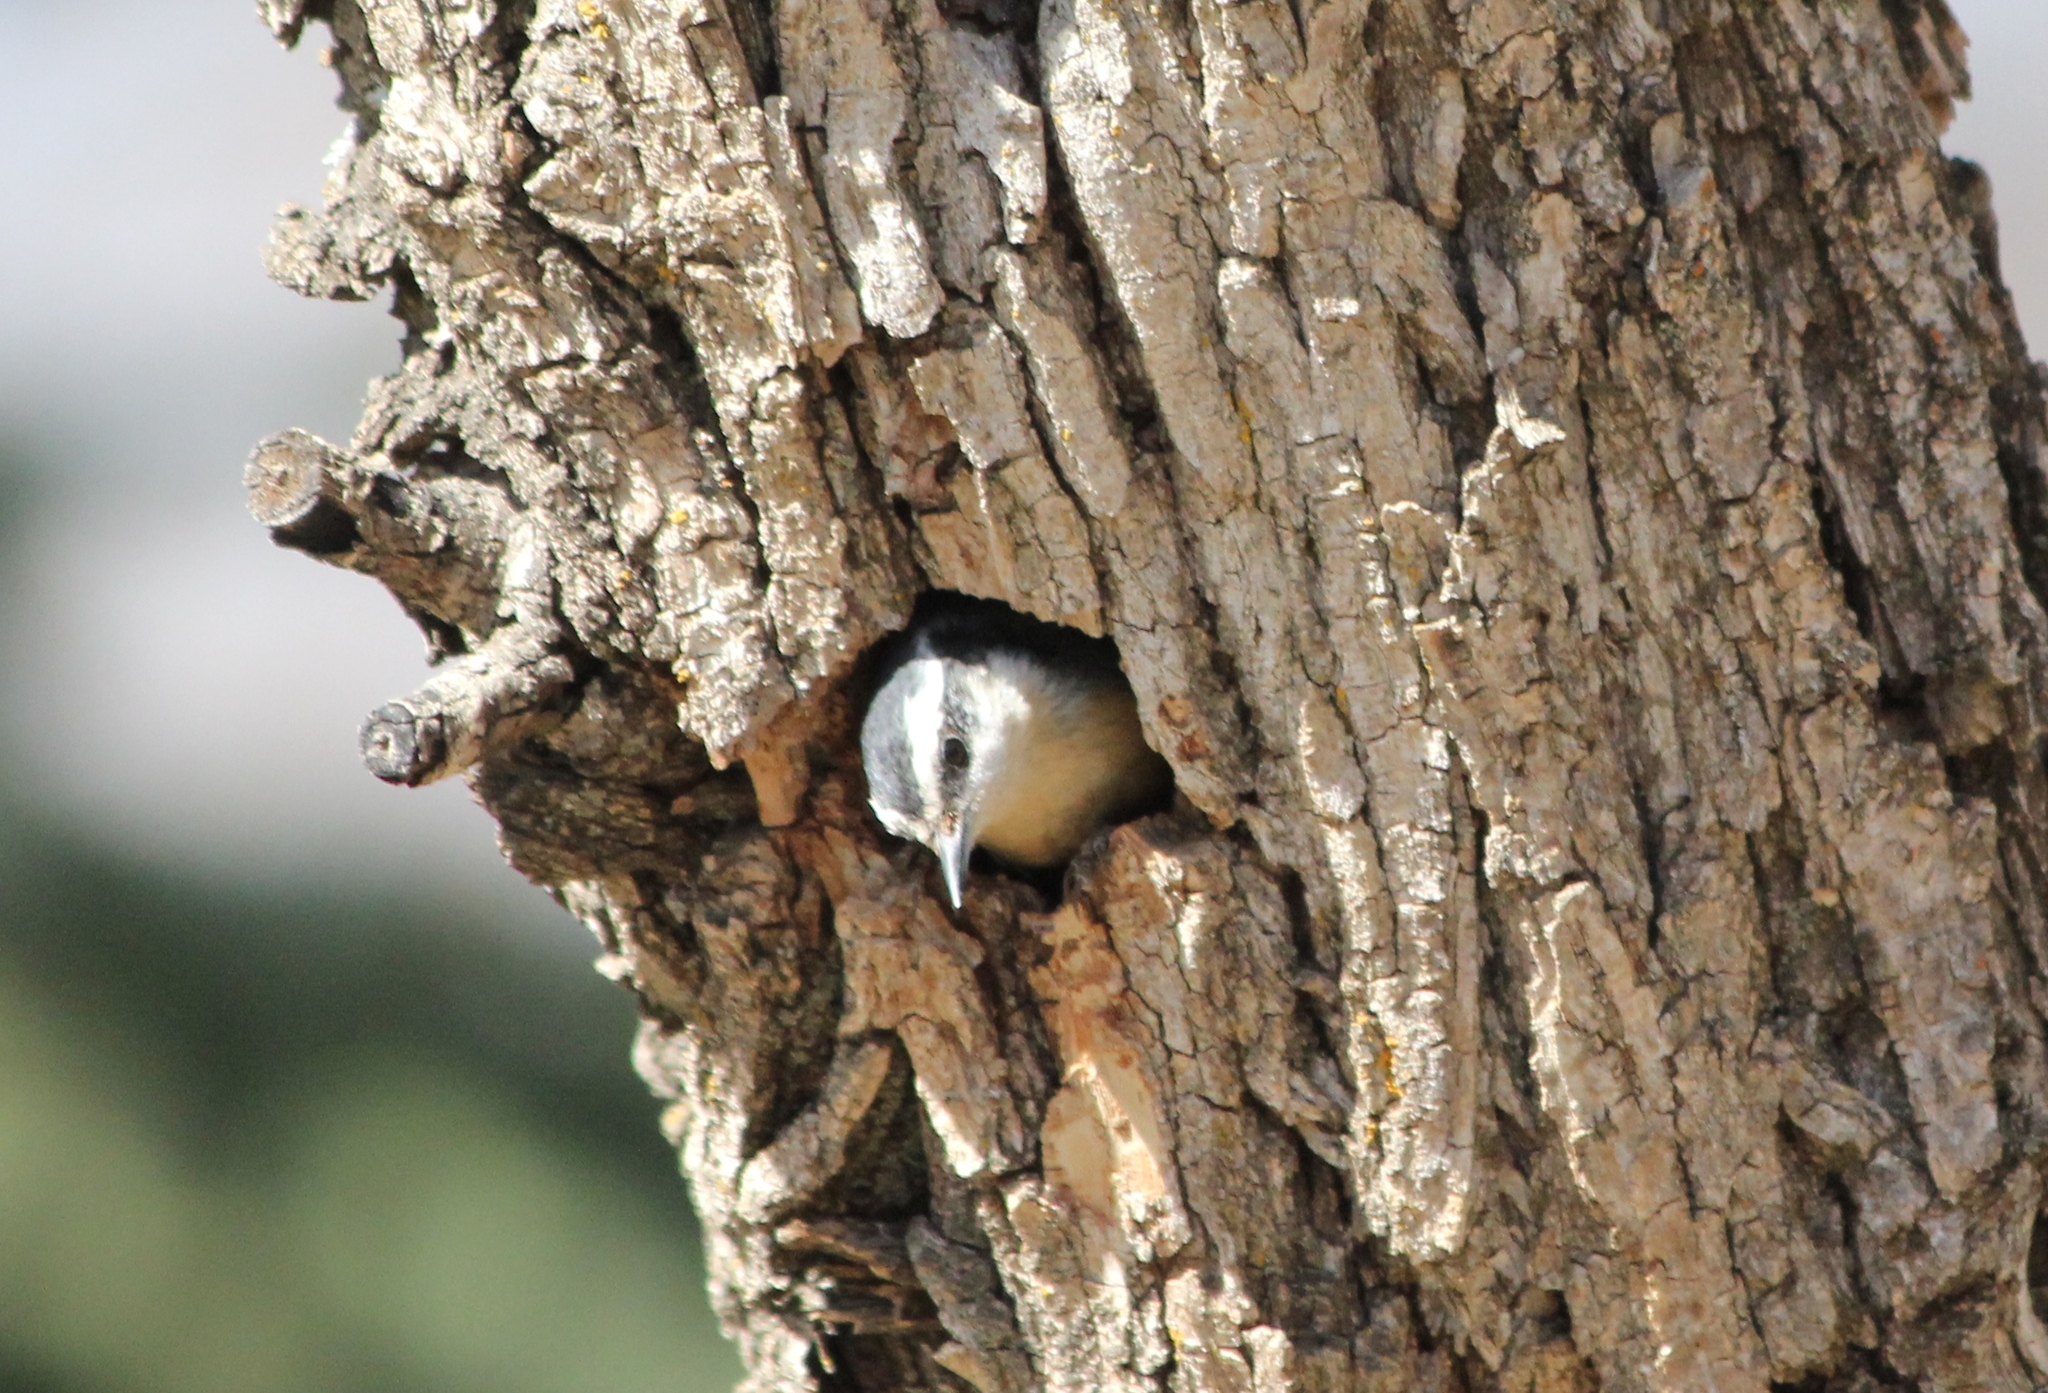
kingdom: Animalia
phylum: Chordata
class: Aves
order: Passeriformes
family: Sittidae
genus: Sitta
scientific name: Sitta canadensis
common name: Red-breasted nuthatch
